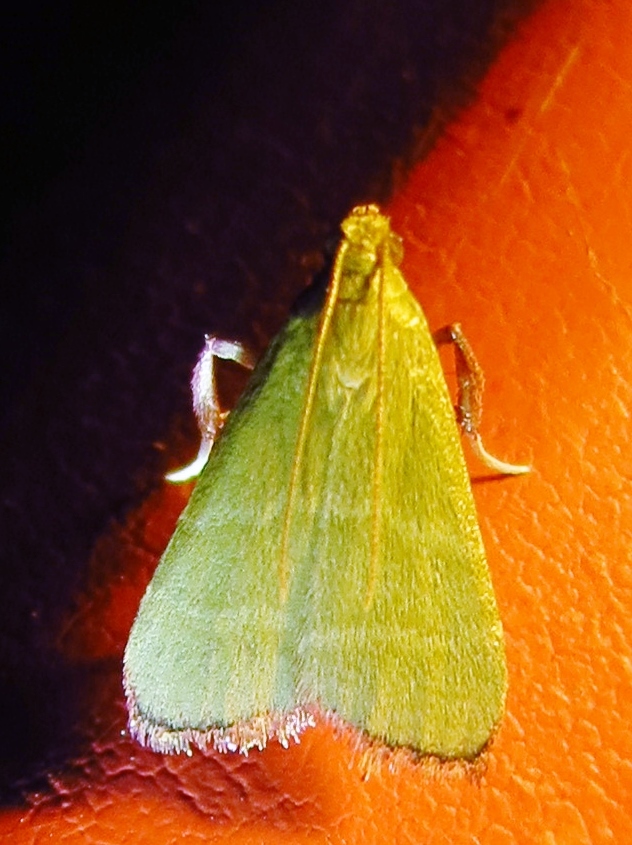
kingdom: Animalia
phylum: Arthropoda
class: Insecta
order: Lepidoptera
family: Pyralidae
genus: Arta
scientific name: Arta olivalis
